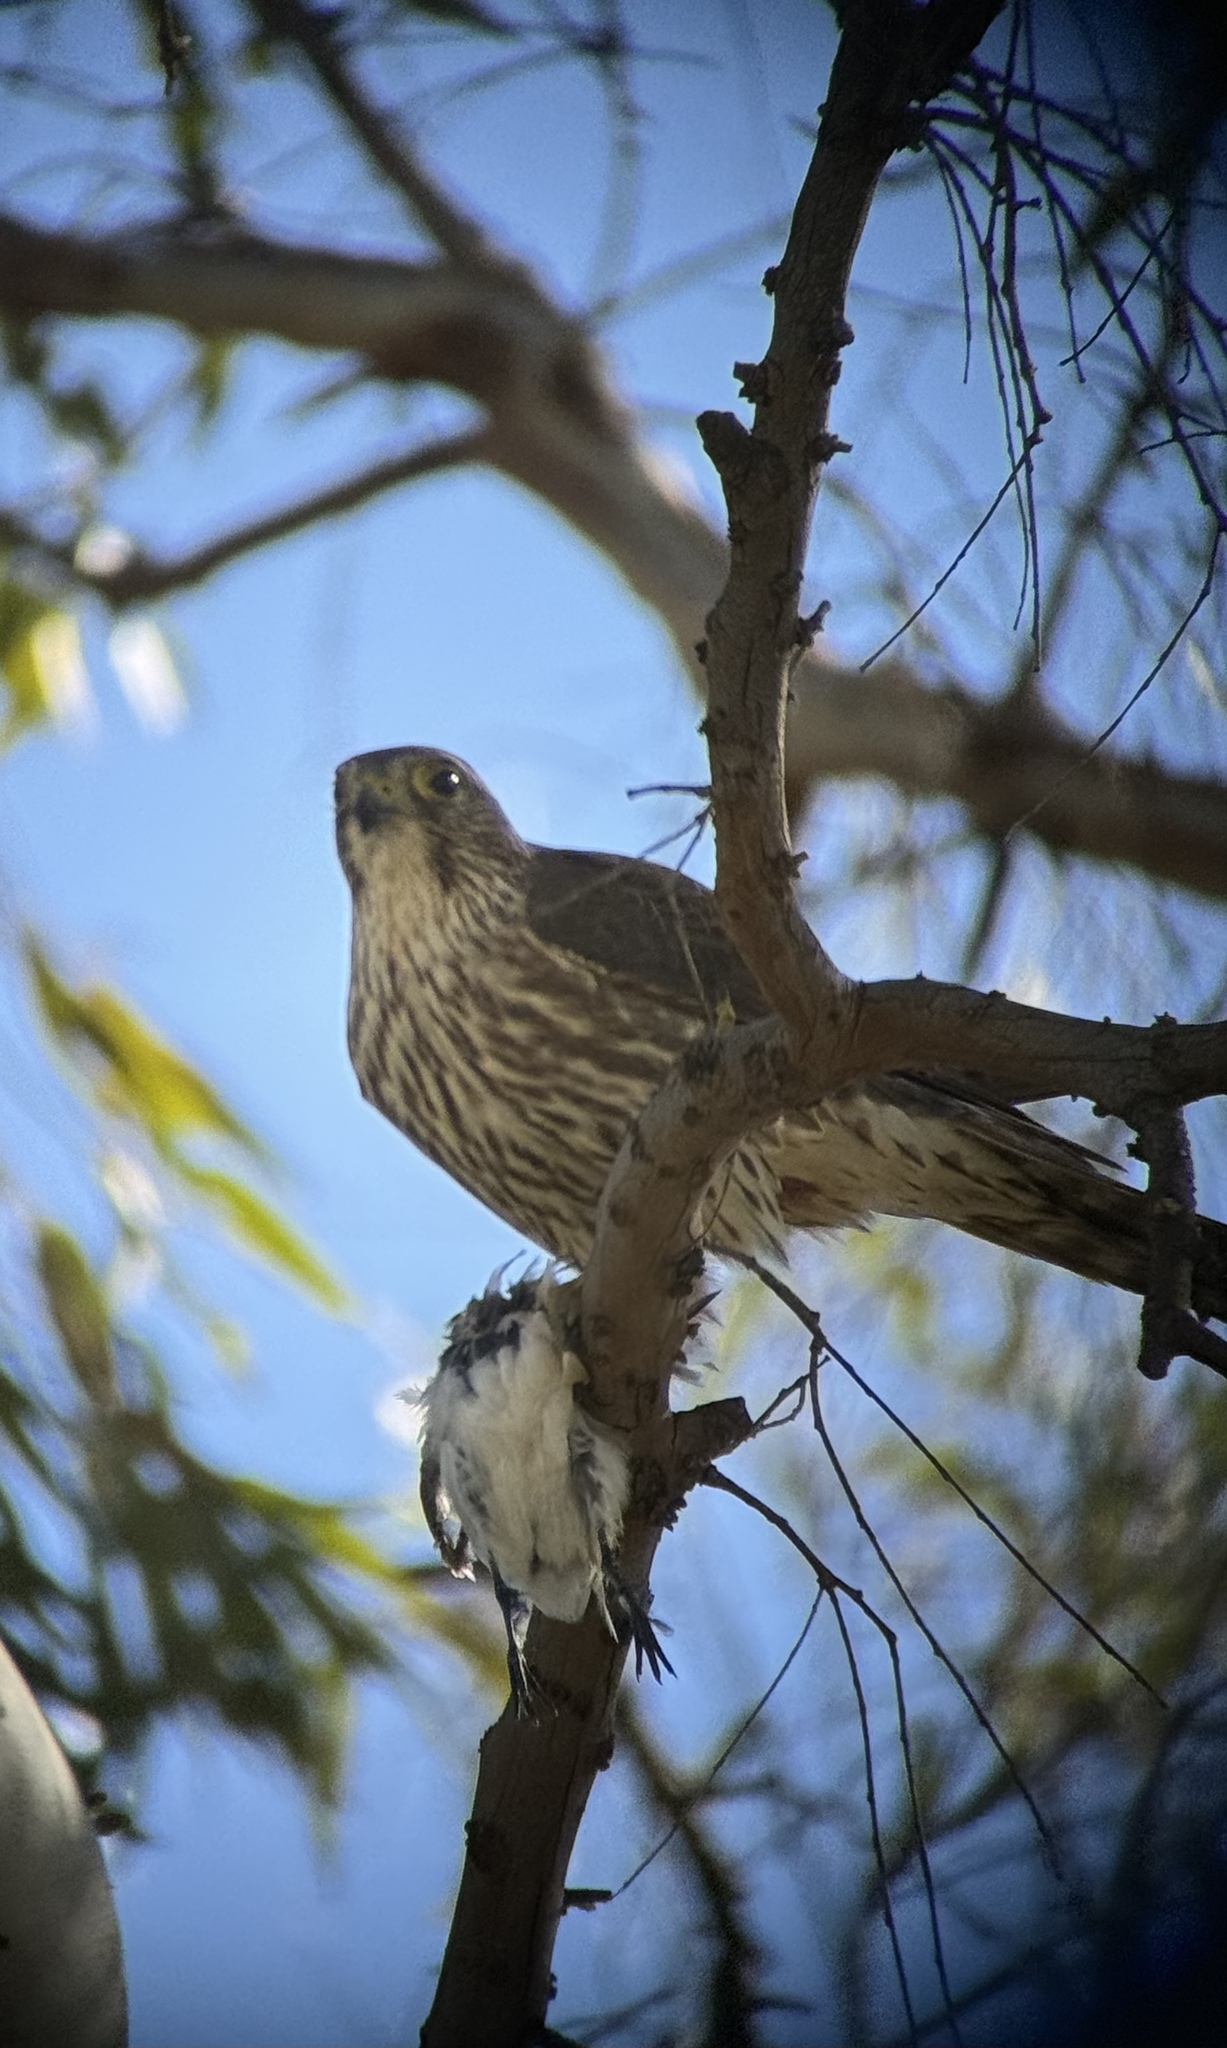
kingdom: Animalia
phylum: Chordata
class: Aves
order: Falconiformes
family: Falconidae
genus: Falco
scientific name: Falco columbarius
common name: Merlin
